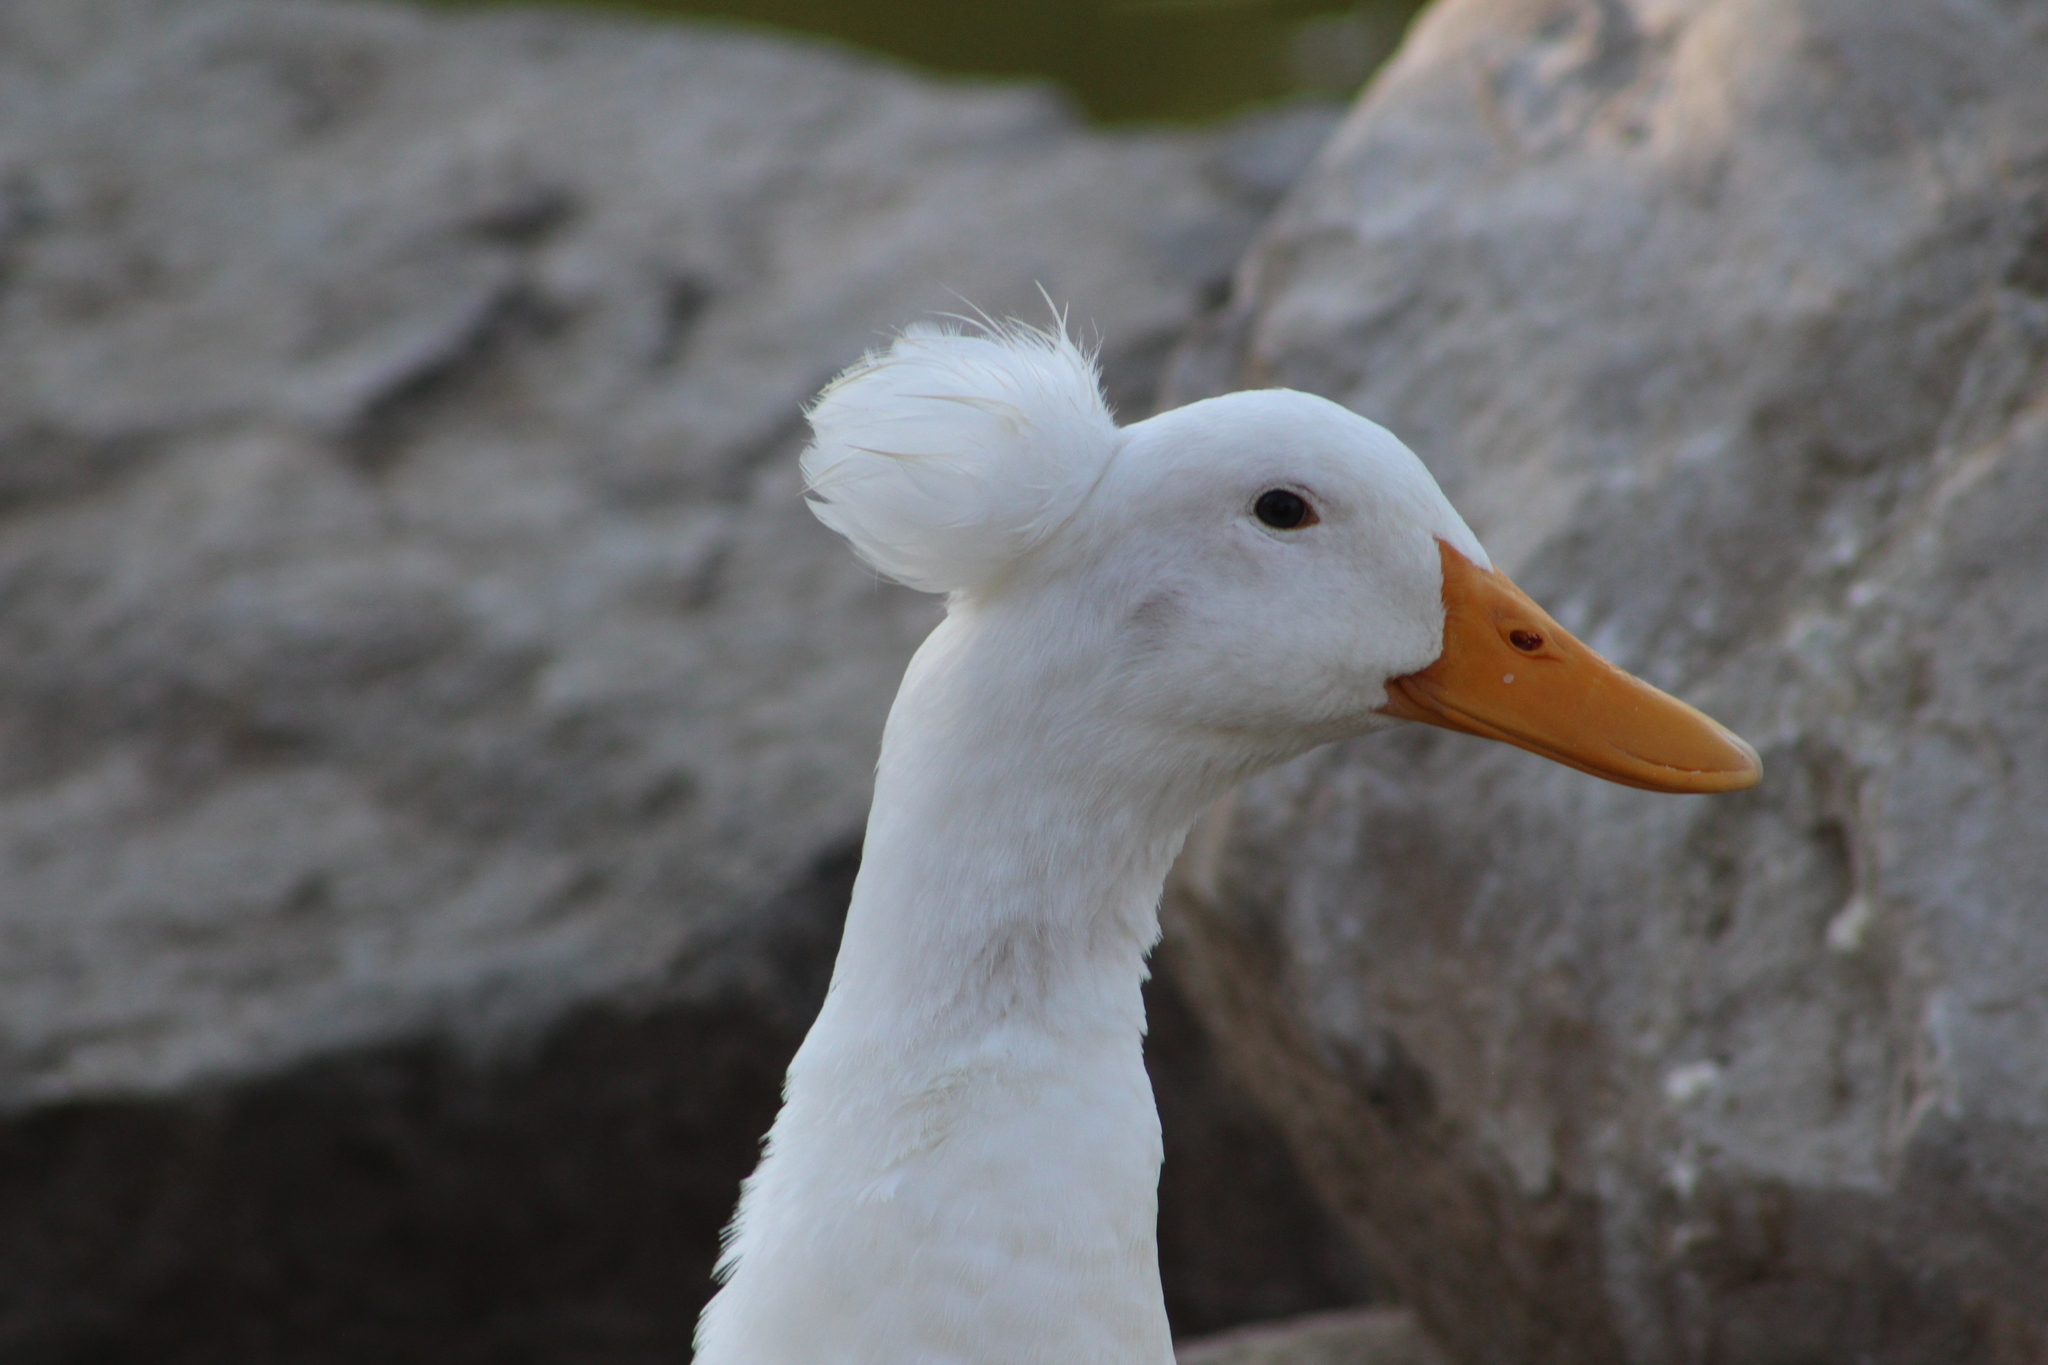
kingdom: Animalia
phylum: Chordata
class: Aves
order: Anseriformes
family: Anatidae
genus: Anas
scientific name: Anas platyrhynchos
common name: Mallard
